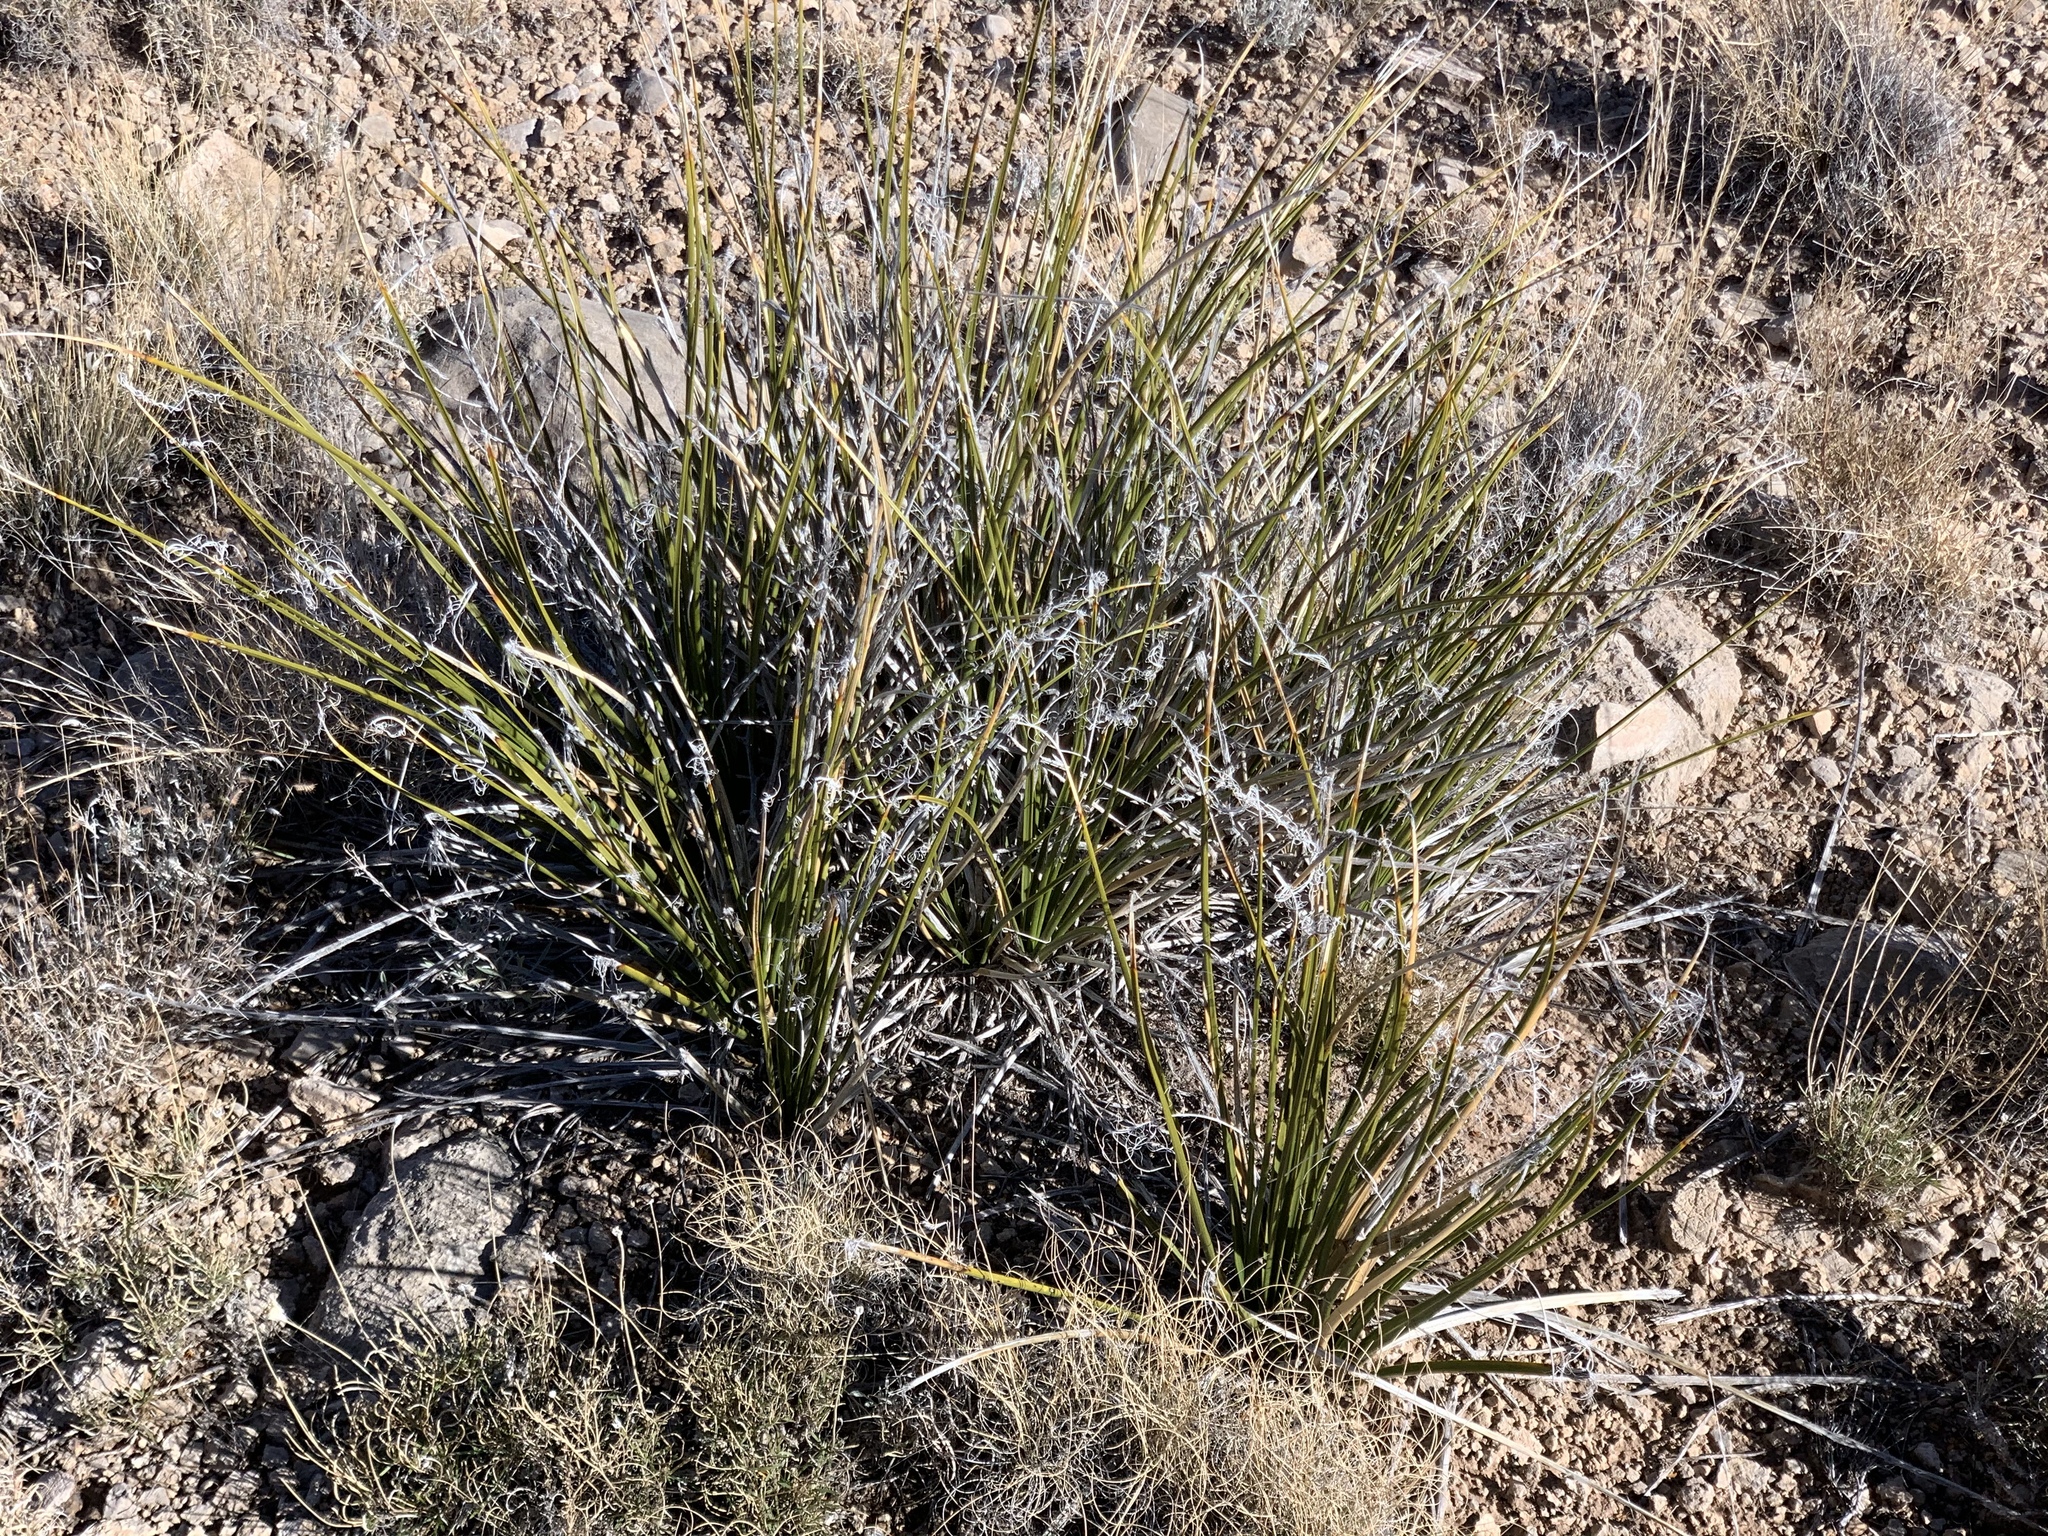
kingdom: Plantae
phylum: Tracheophyta
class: Liliopsida
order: Asparagales
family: Asparagaceae
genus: Nolina
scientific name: Nolina microcarpa
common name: Bear-grass
